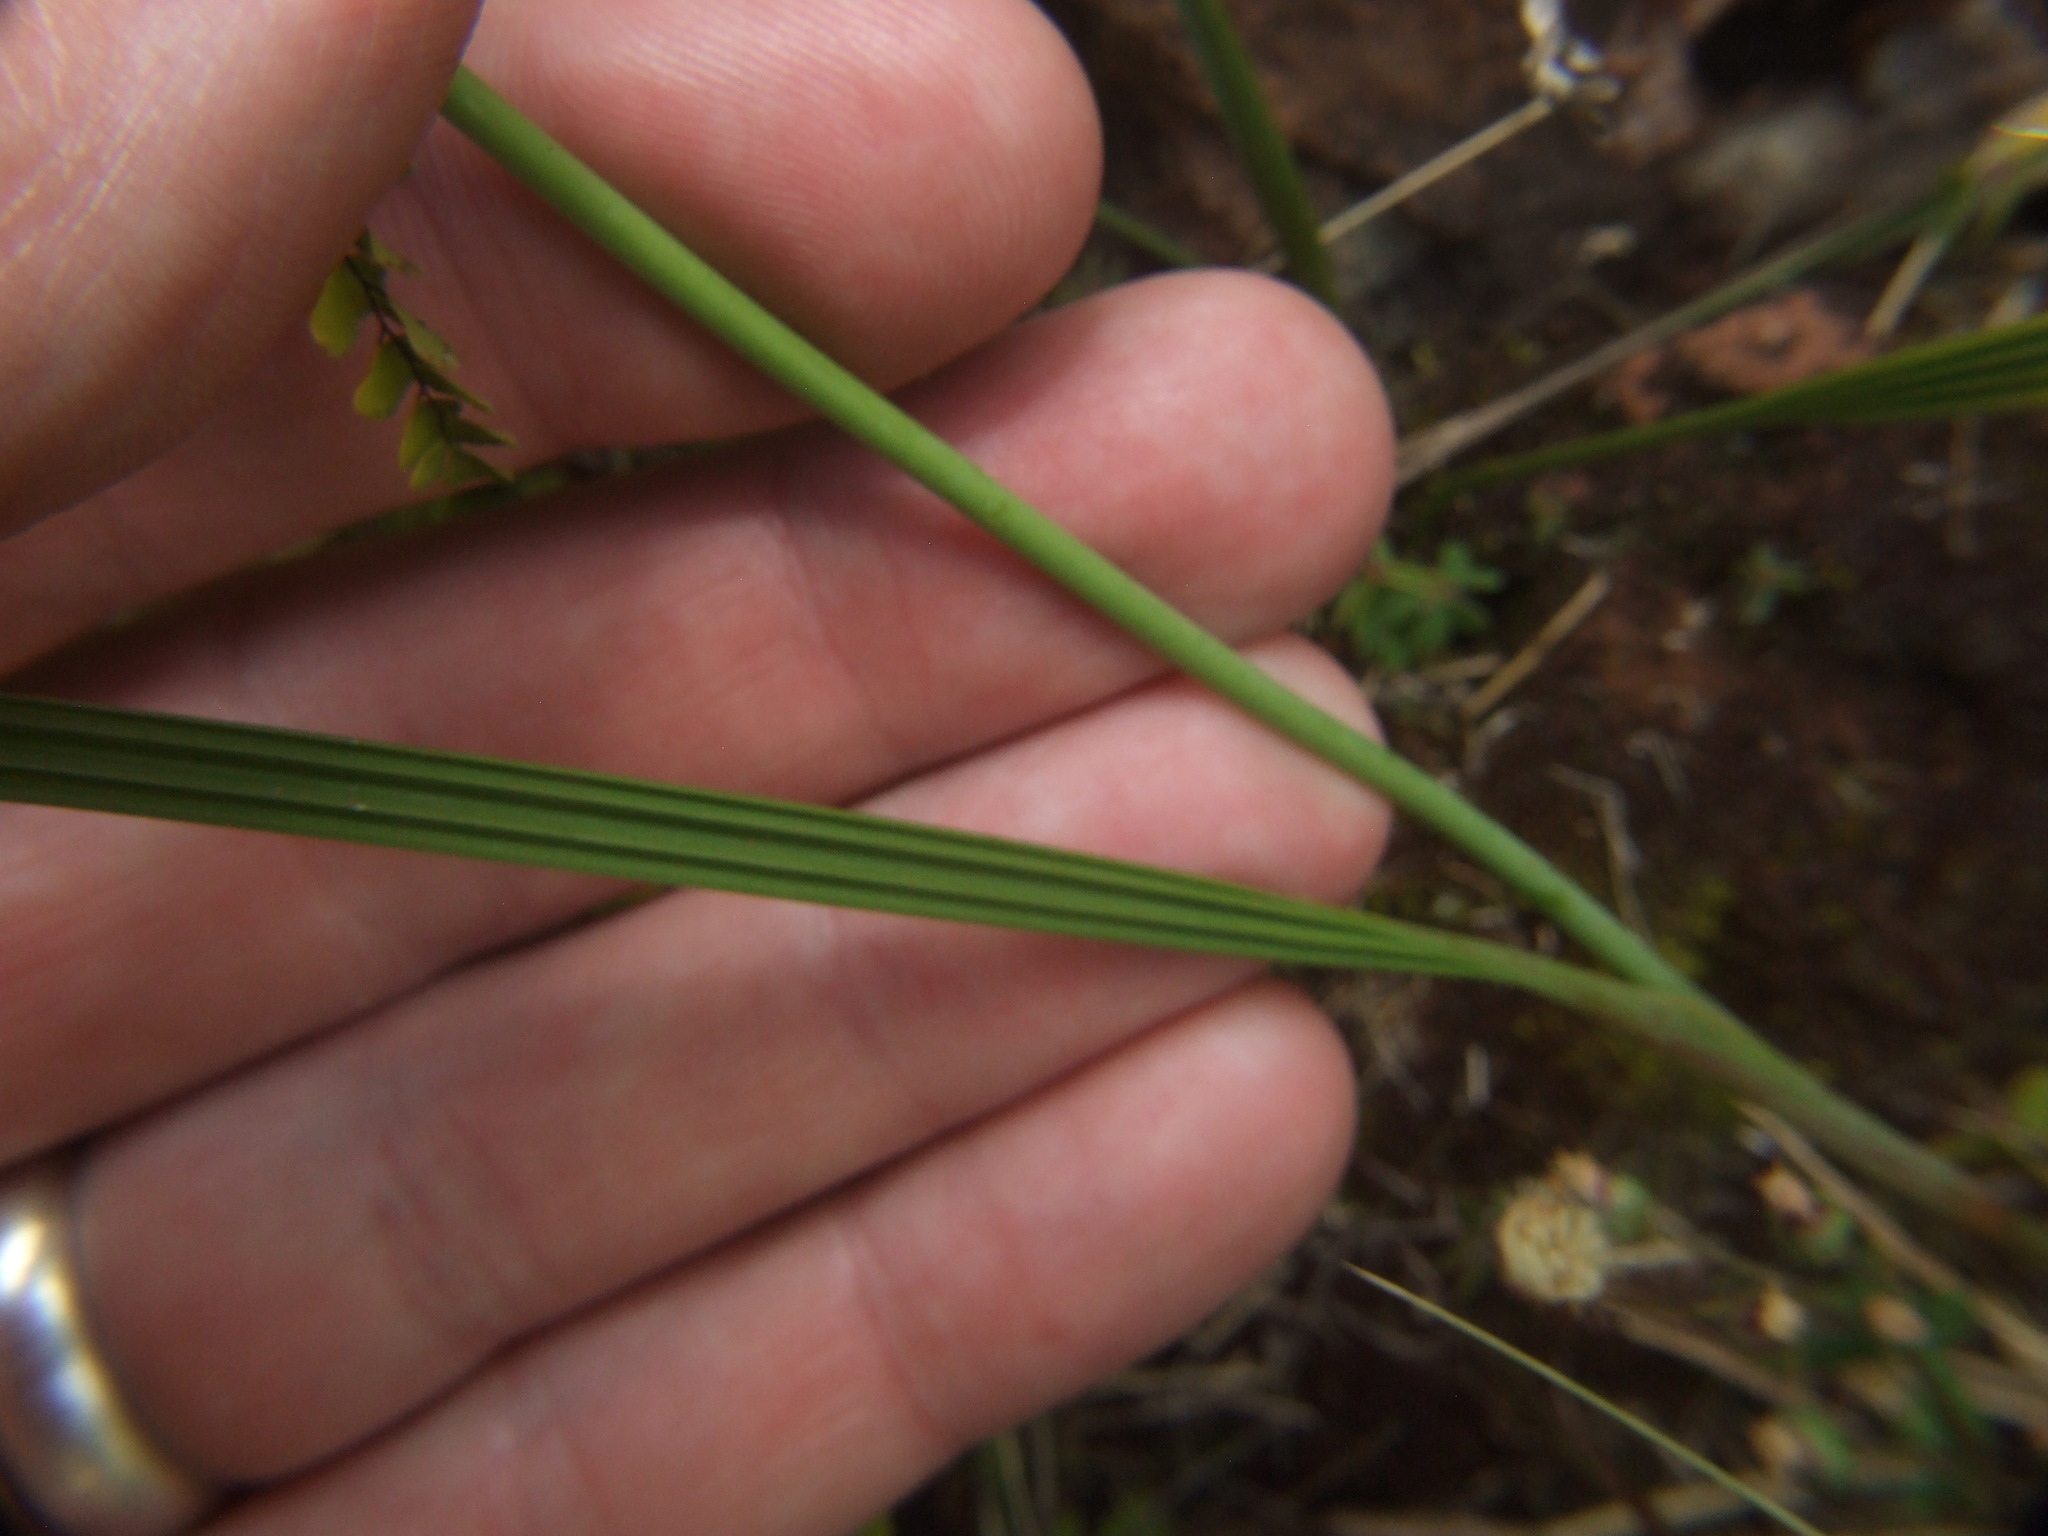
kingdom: Plantae
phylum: Tracheophyta
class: Liliopsida
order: Asparagales
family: Iridaceae
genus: Hesperoxiphion
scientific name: Hesperoxiphion herrerae
